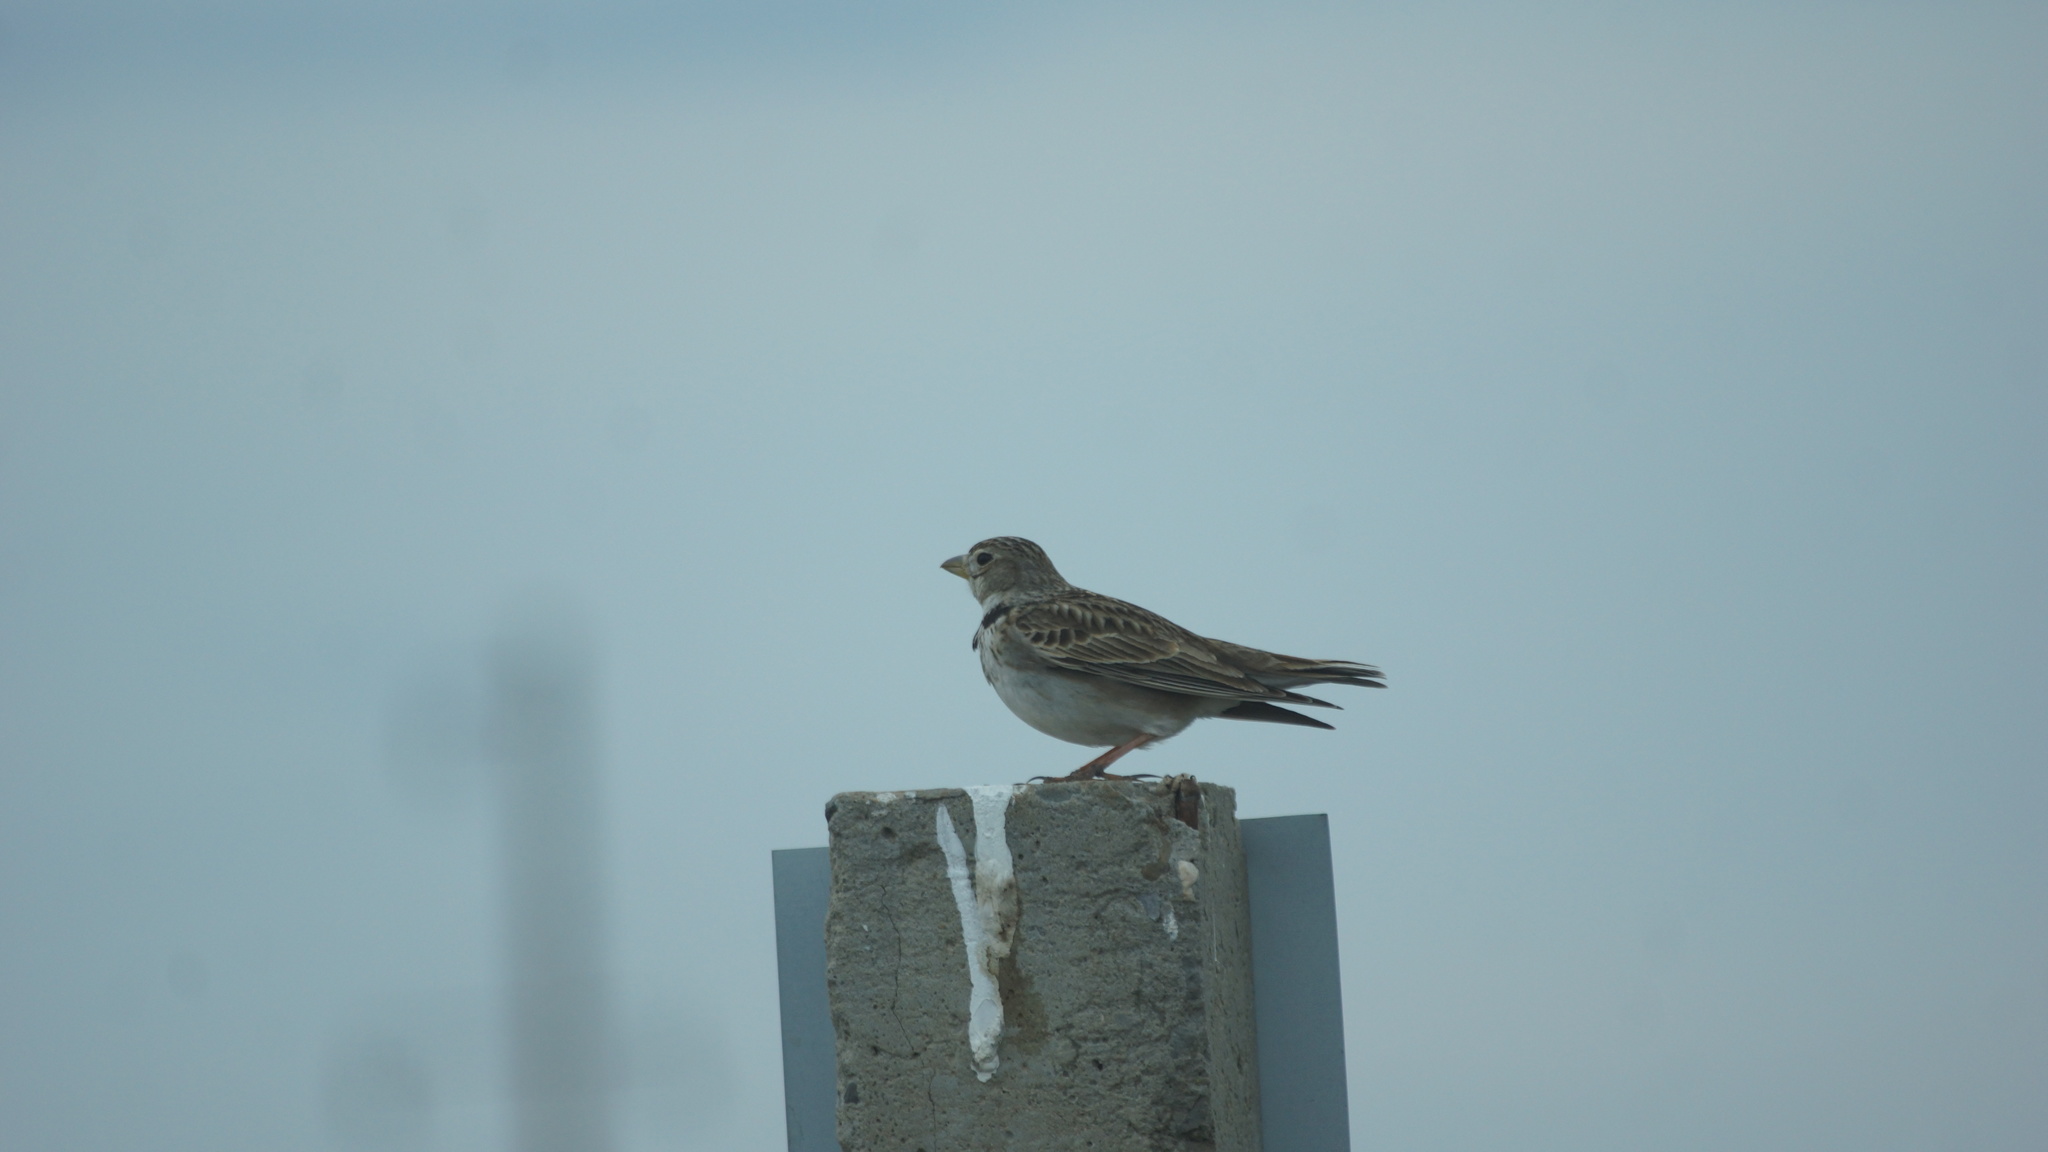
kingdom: Animalia
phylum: Chordata
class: Aves
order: Passeriformes
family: Alaudidae
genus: Melanocorypha
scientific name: Melanocorypha calandra
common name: Calandra lark
